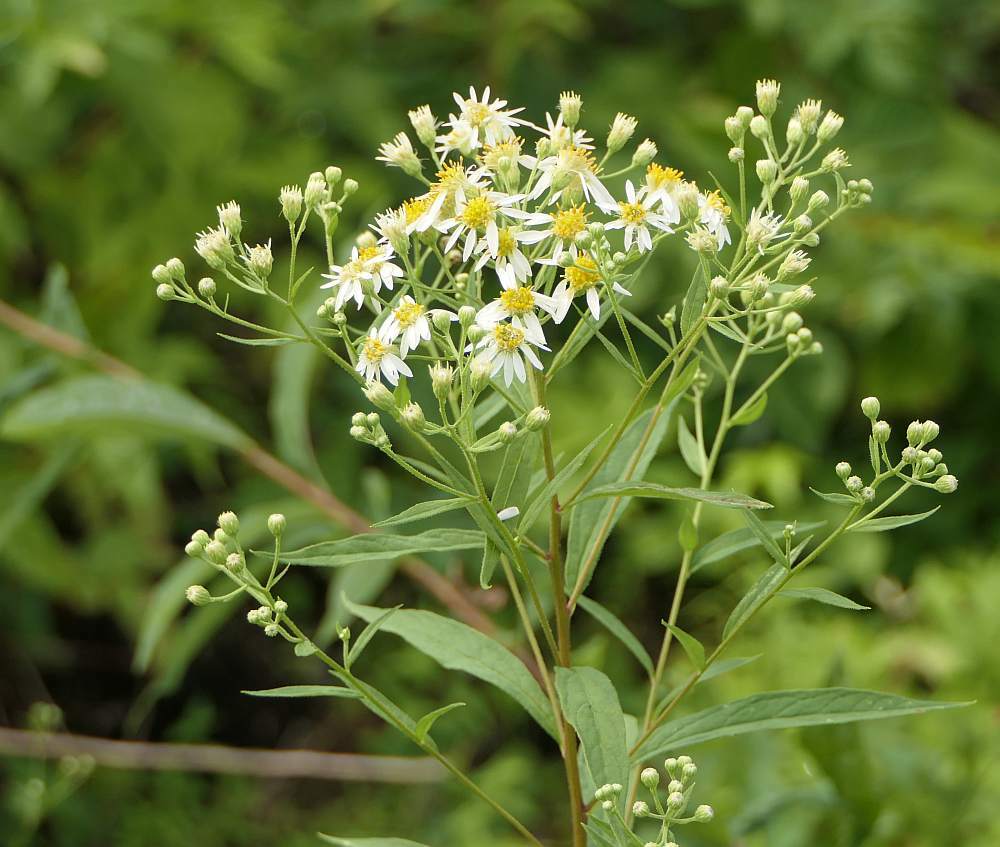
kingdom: Plantae
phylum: Tracheophyta
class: Magnoliopsida
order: Asterales
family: Asteraceae
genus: Doellingeria
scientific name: Doellingeria umbellata
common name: Flat-top white aster
